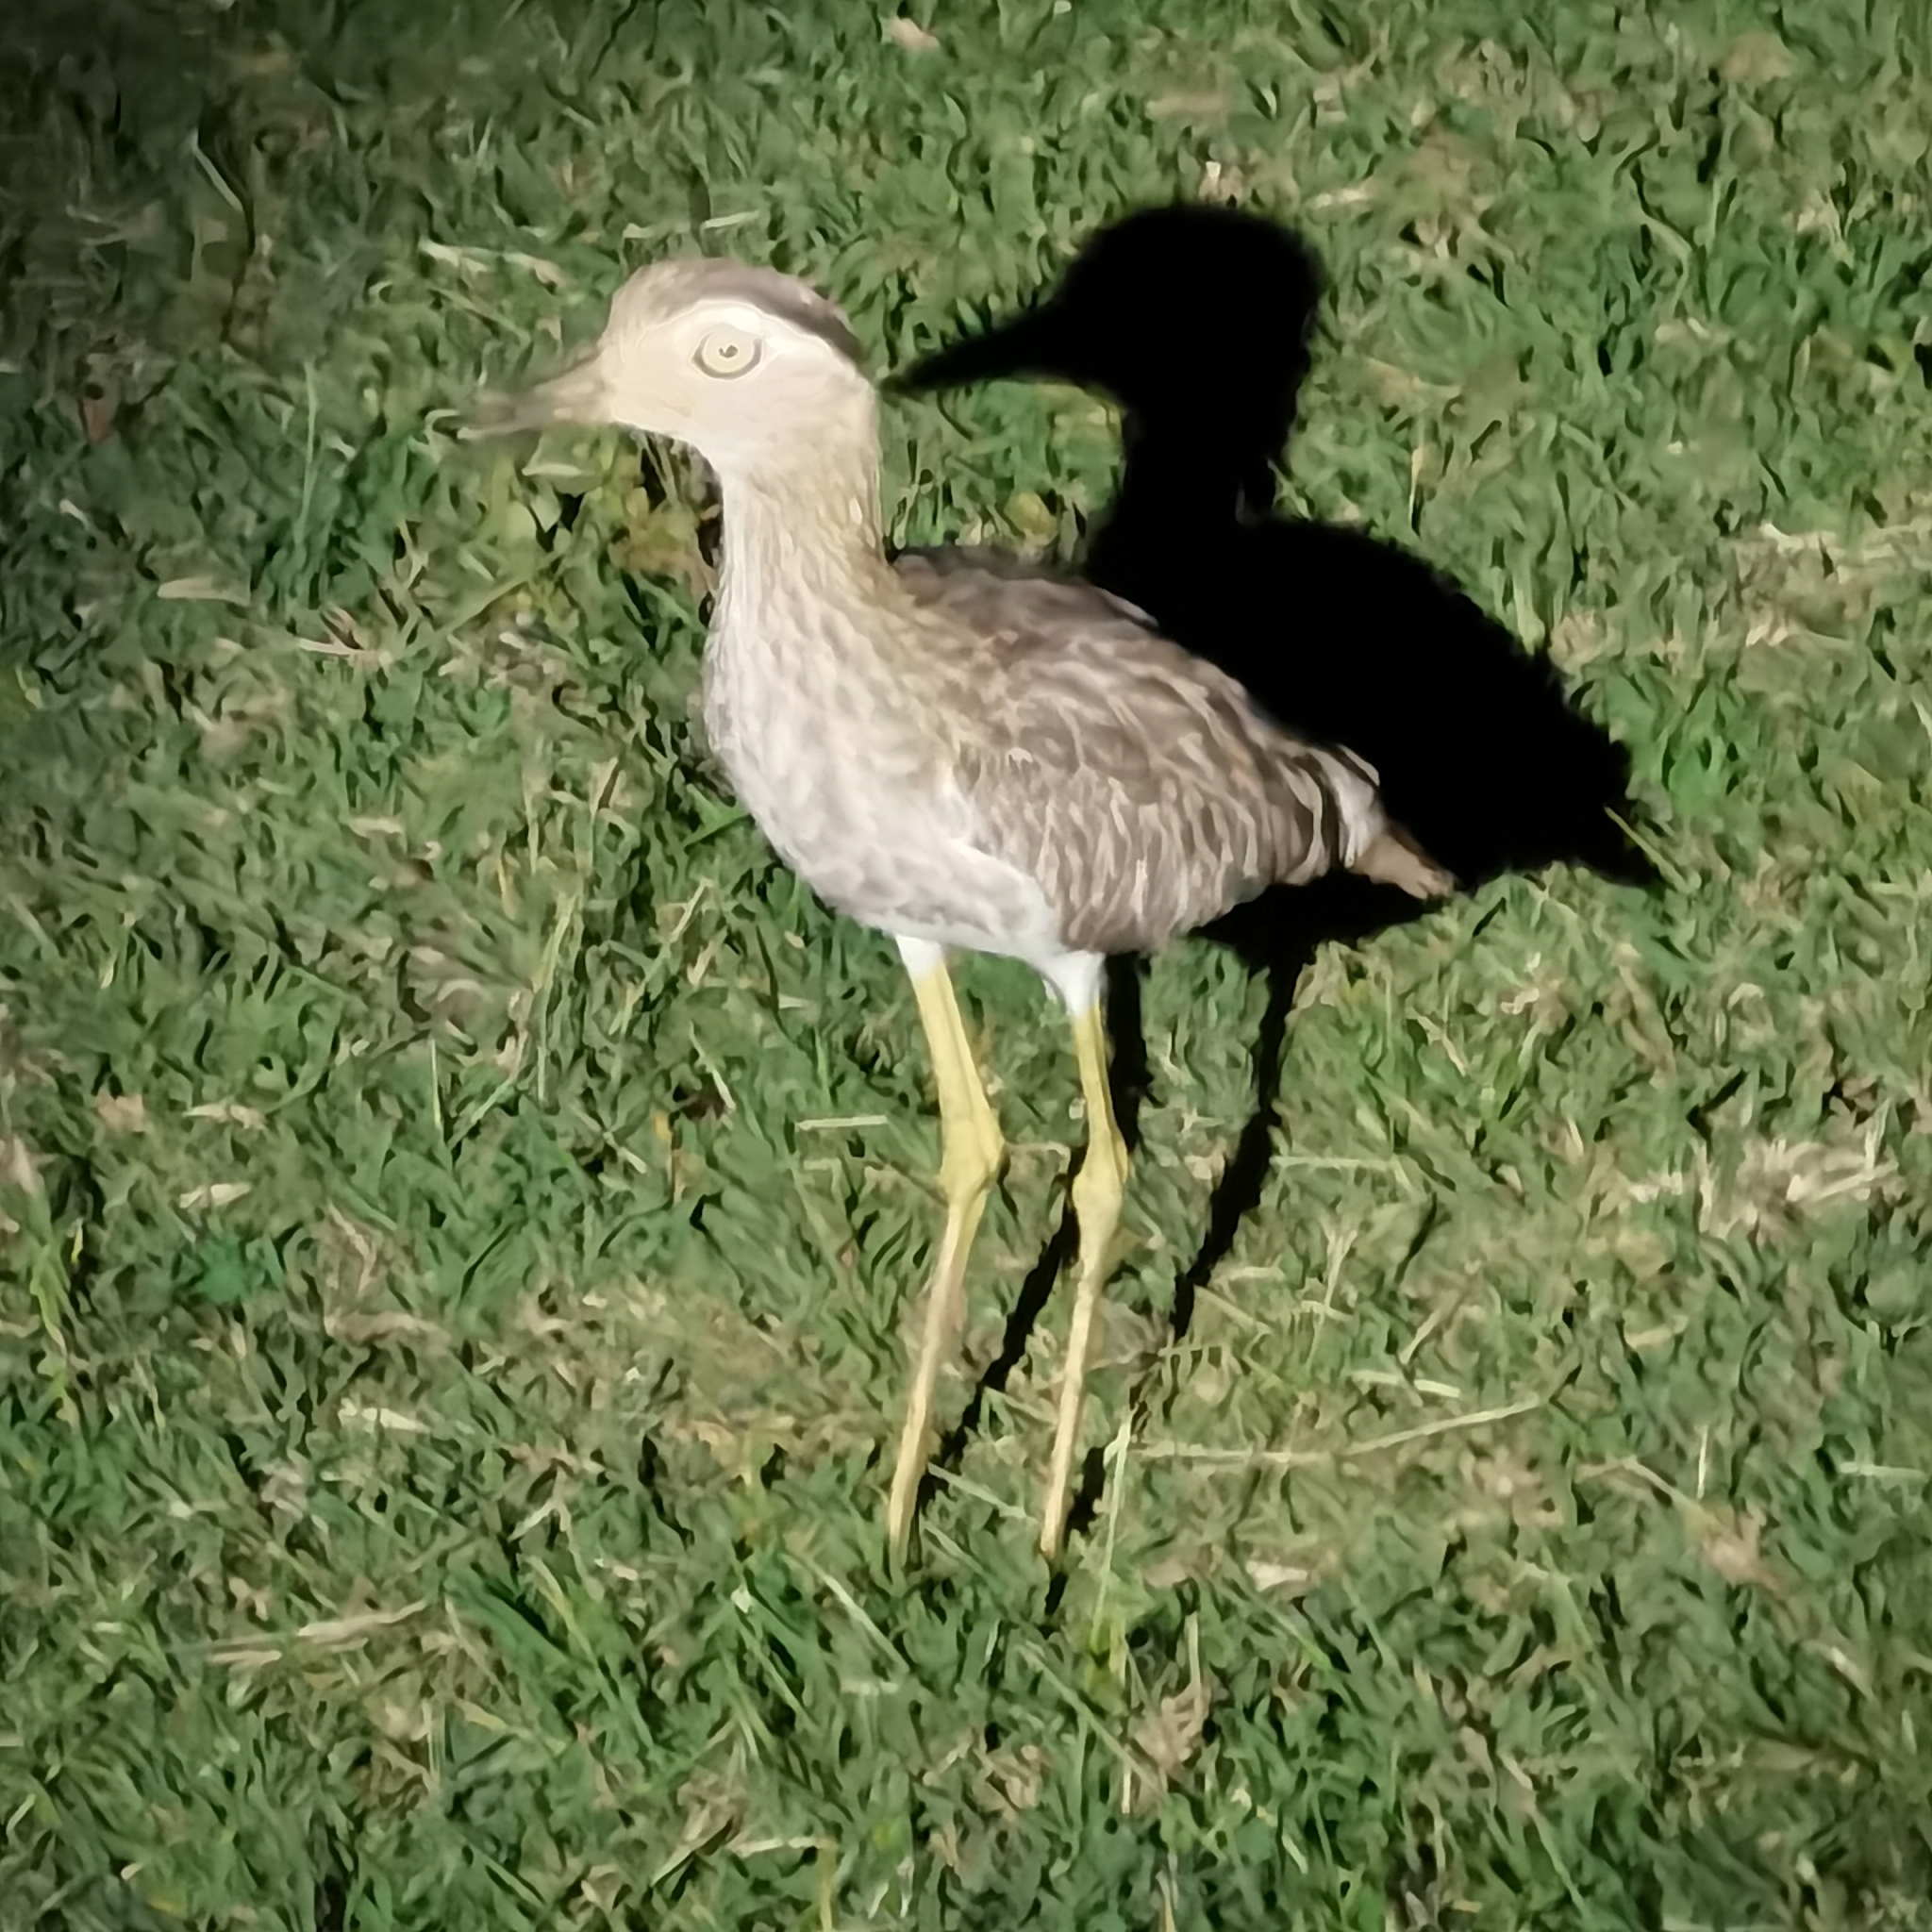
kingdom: Animalia
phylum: Chordata
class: Aves
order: Charadriiformes
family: Burhinidae
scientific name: Burhinidae
